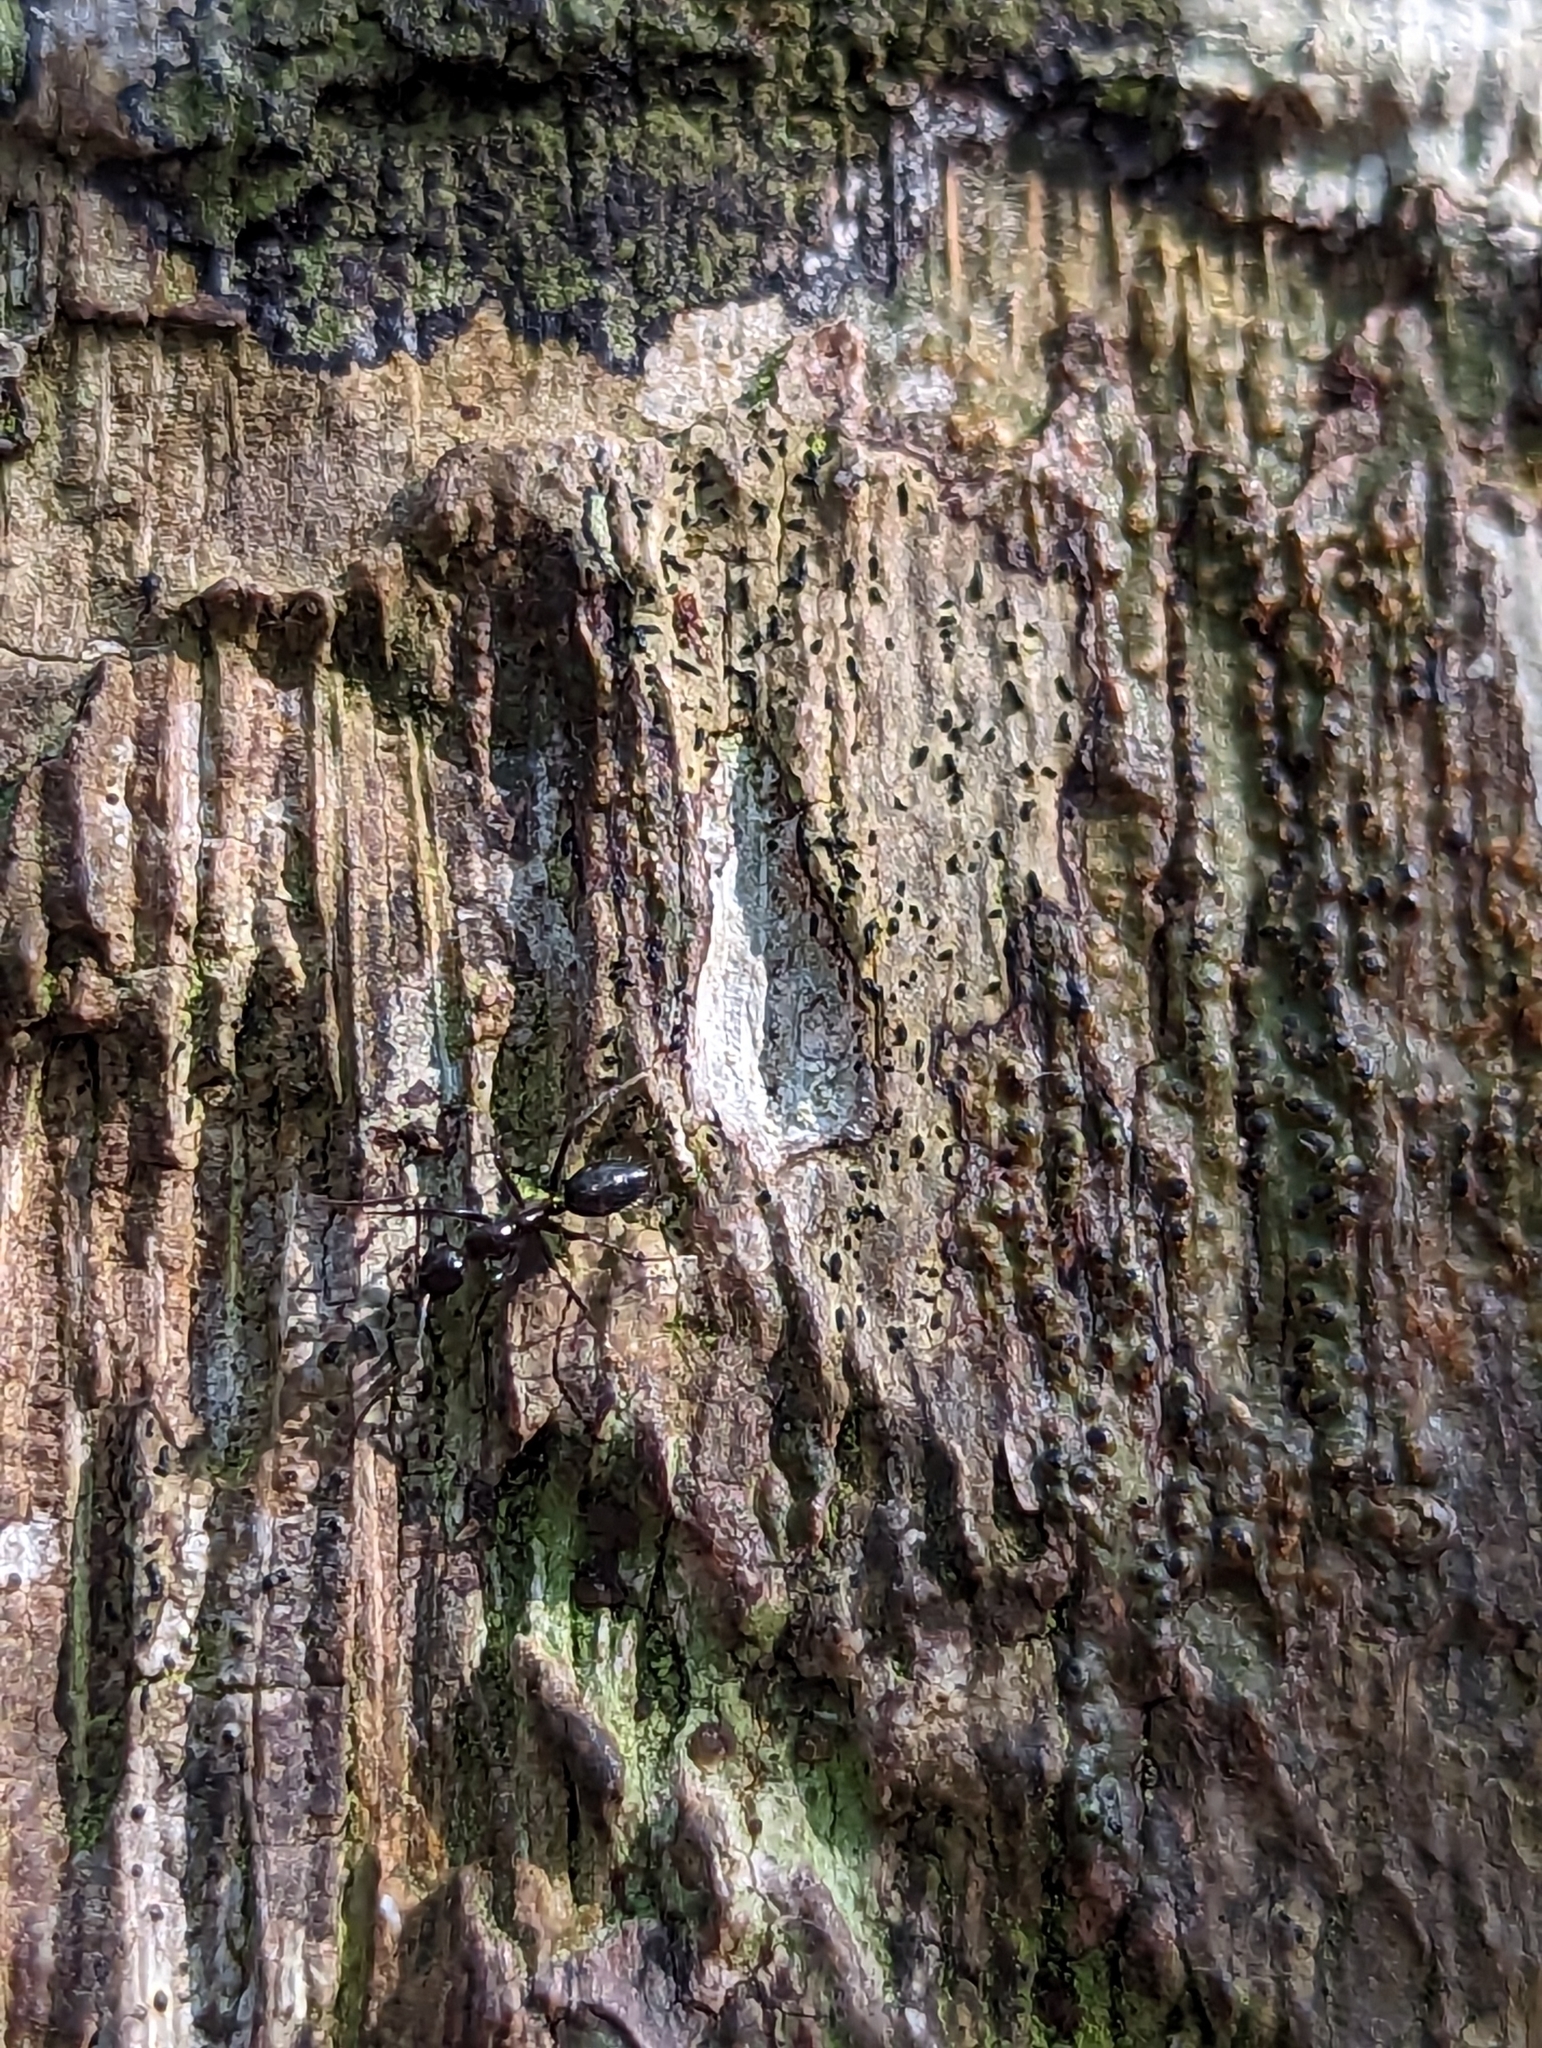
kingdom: Animalia
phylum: Arthropoda
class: Insecta
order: Hymenoptera
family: Formicidae
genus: Camponotus
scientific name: Camponotus sexguttatus
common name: Neotropical carpenter ant
